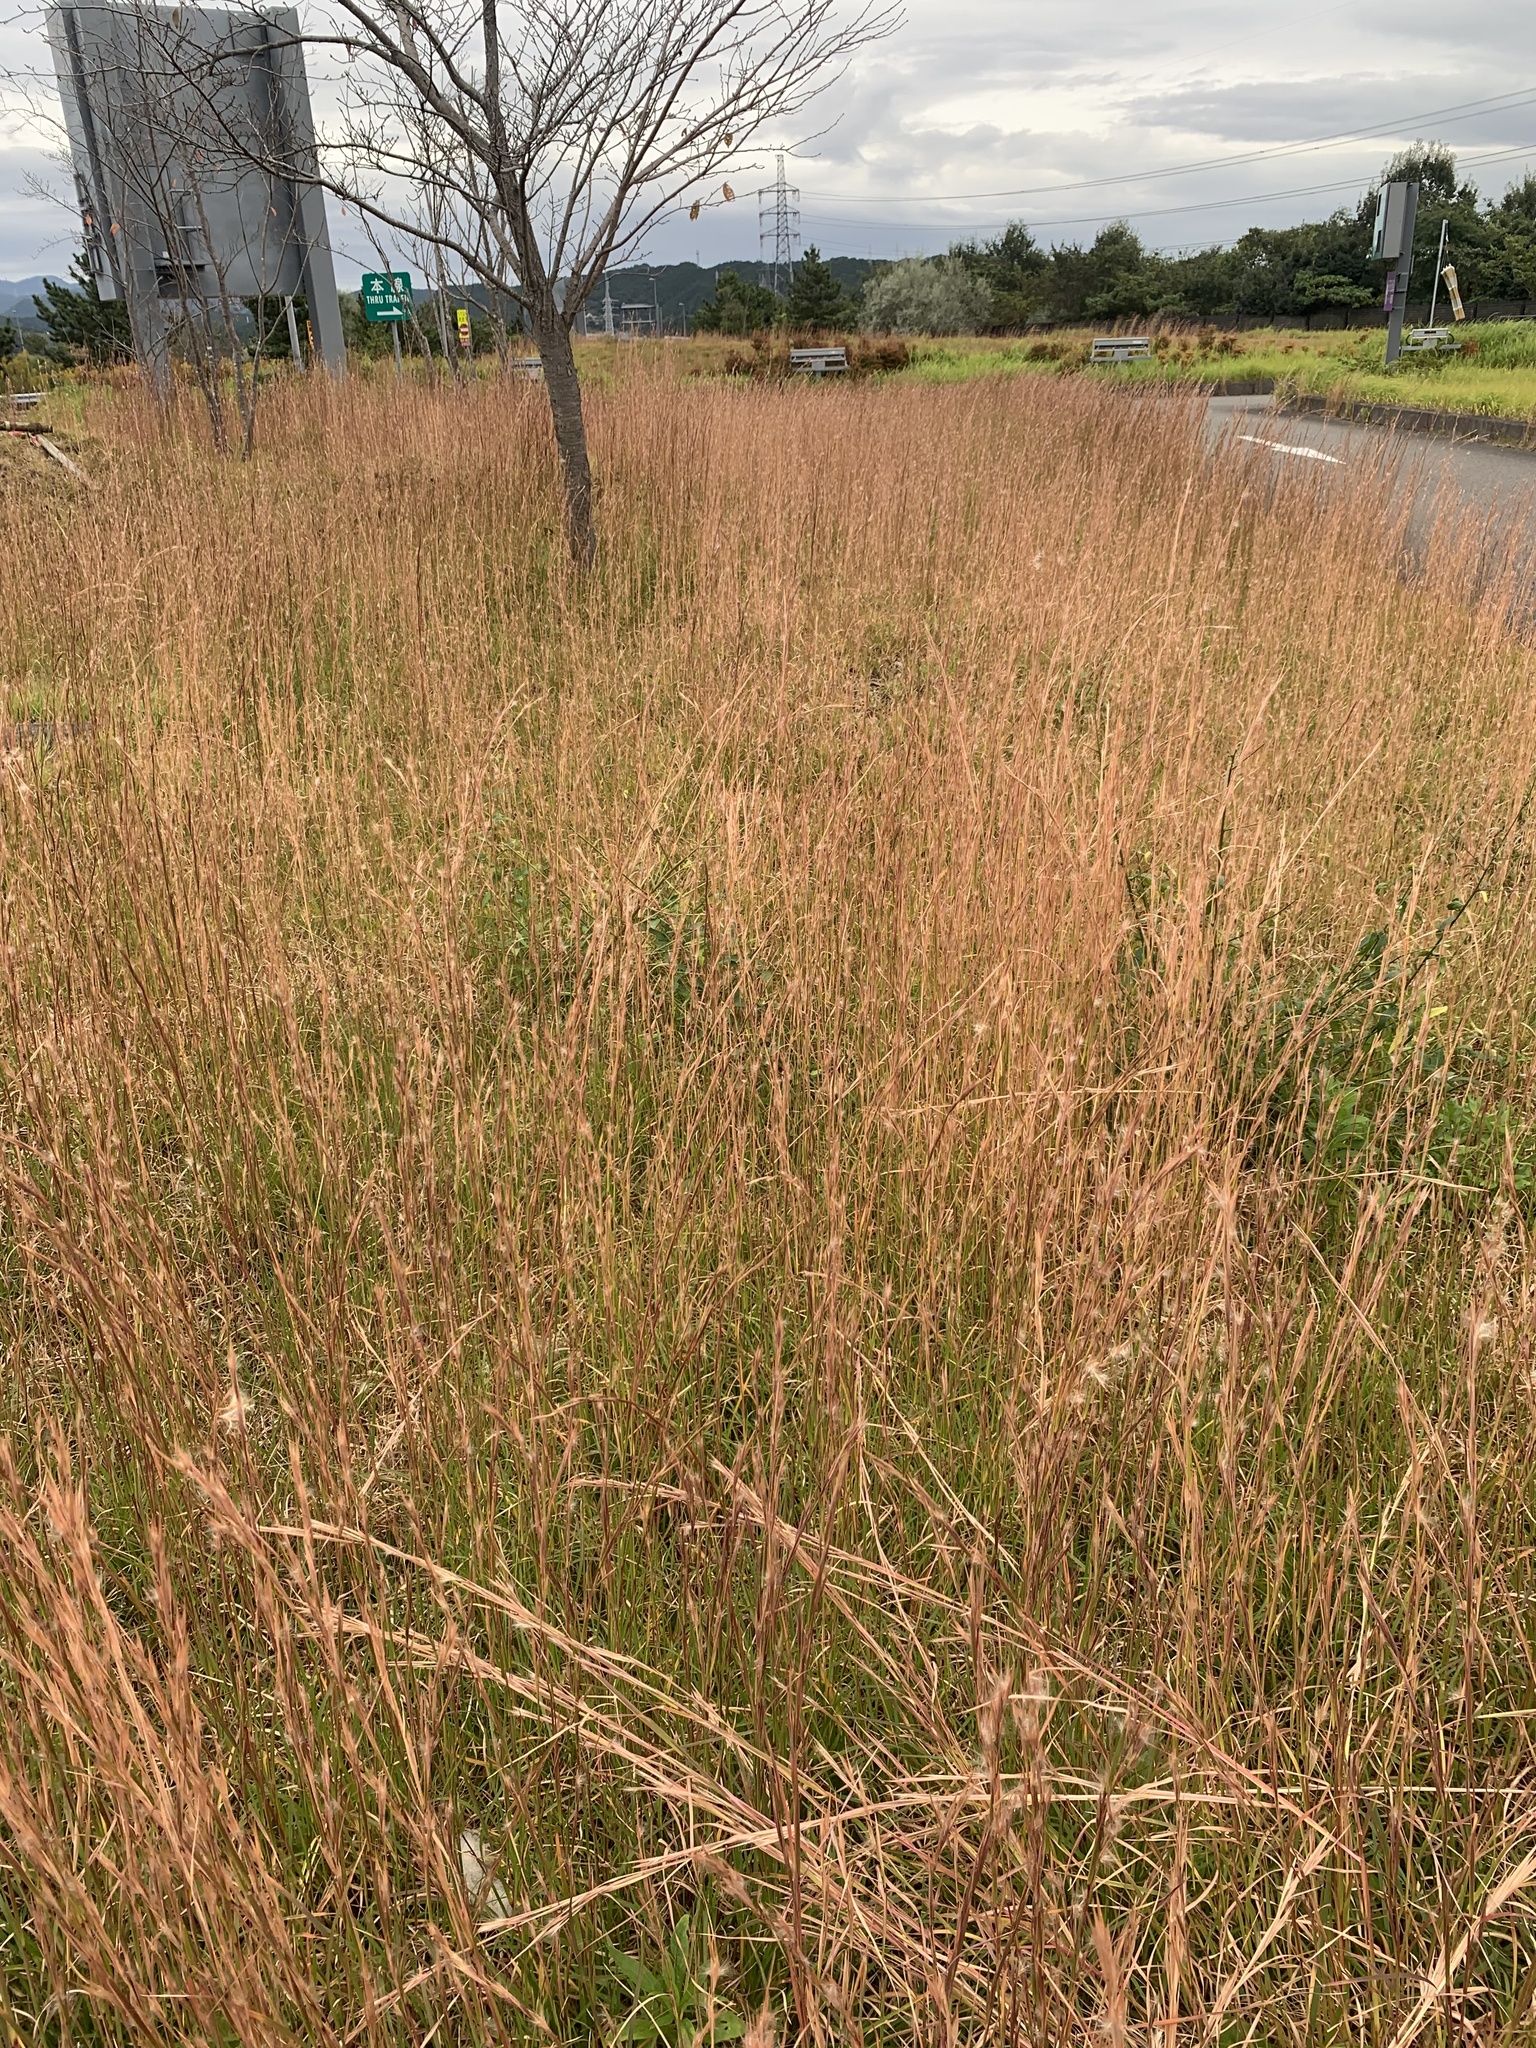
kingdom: Animalia
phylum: Arthropoda
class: Insecta
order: Orthoptera
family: Gryllidae
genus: Teleogryllus
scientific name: Teleogryllus emma
